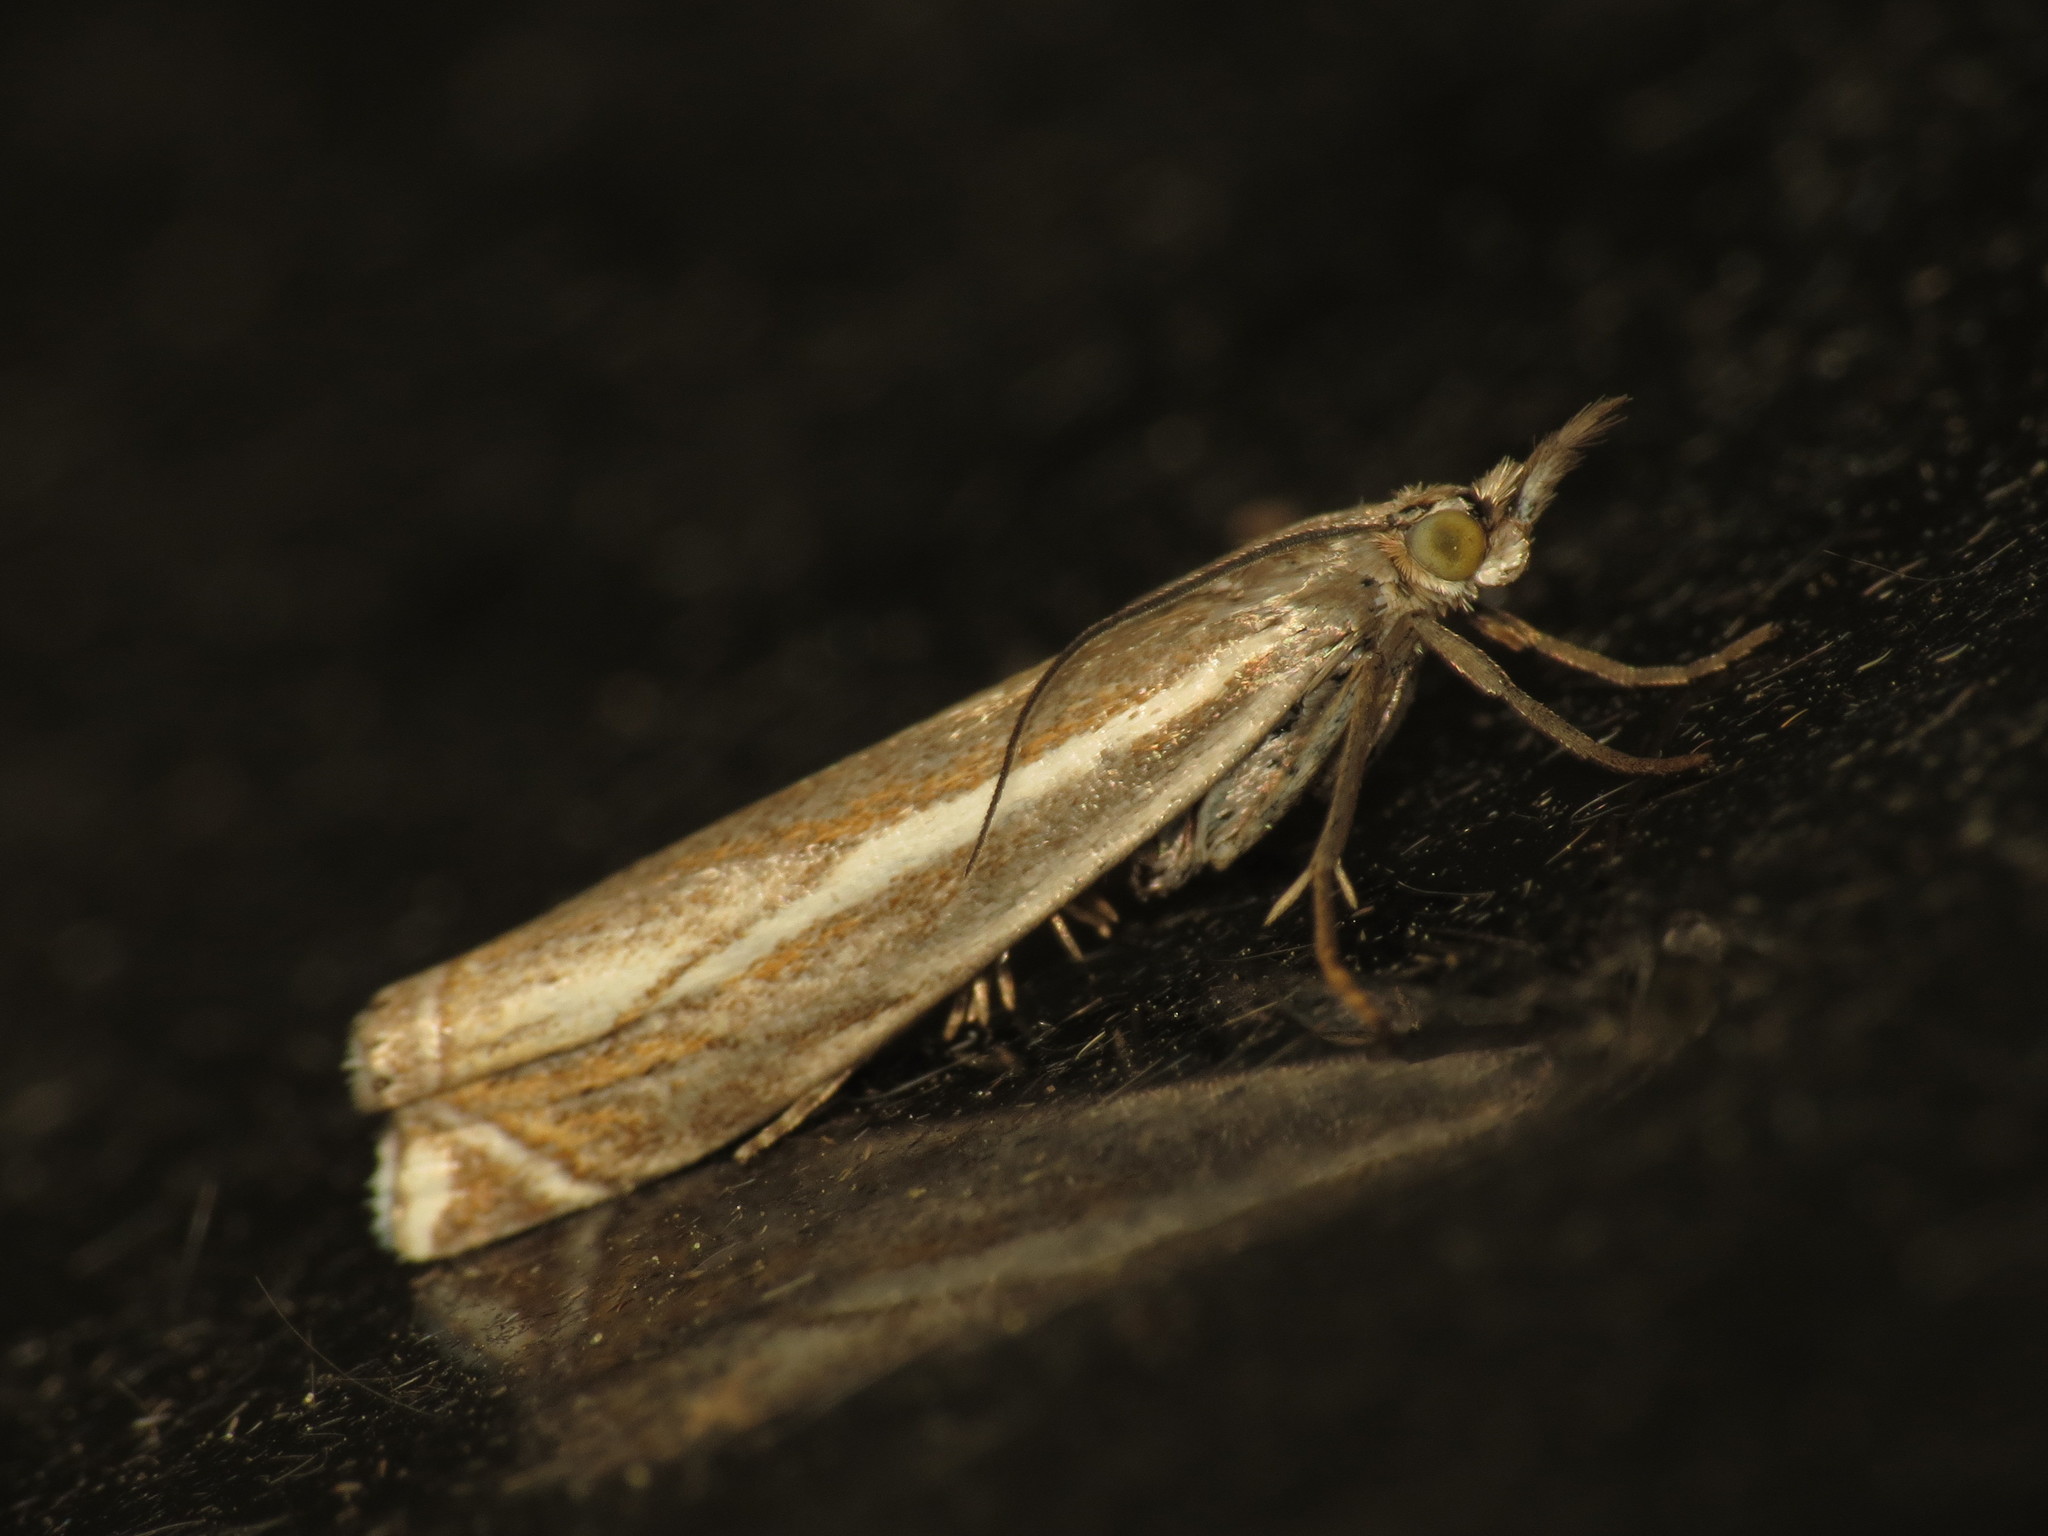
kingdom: Animalia
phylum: Arthropoda
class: Insecta
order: Lepidoptera
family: Crambidae
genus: Crambus
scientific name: Crambus nemorella
